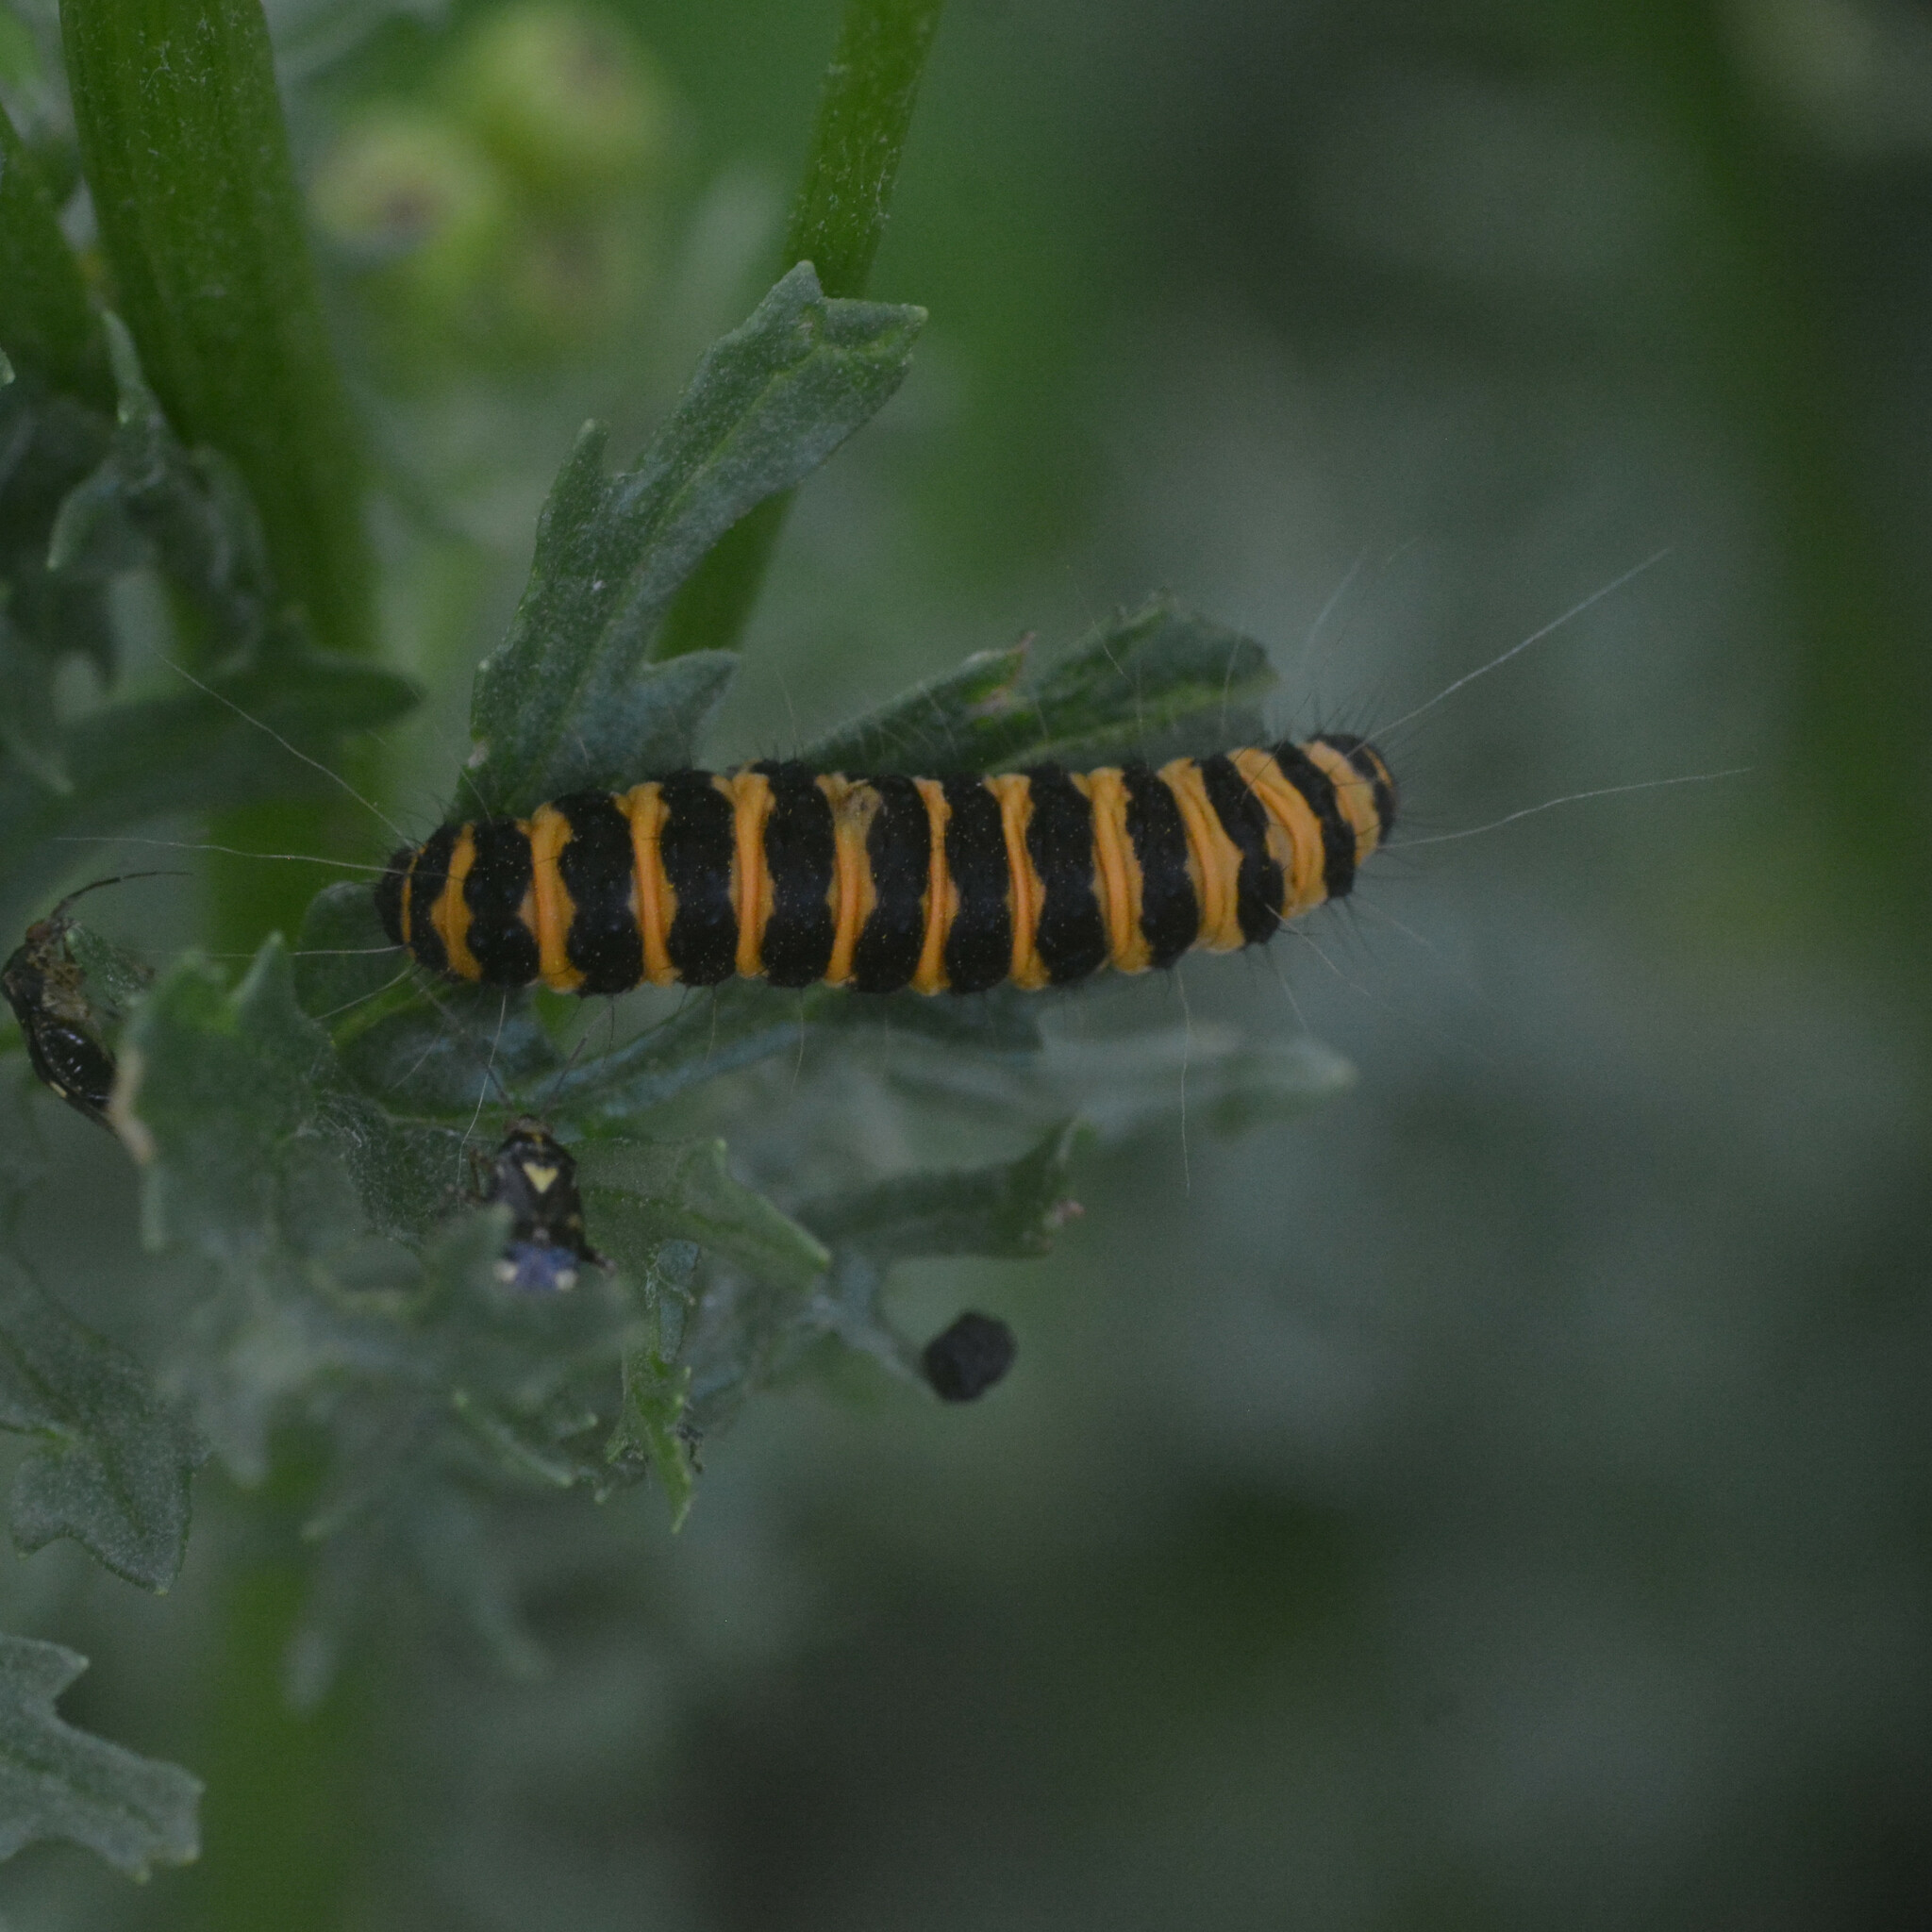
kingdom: Animalia
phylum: Arthropoda
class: Insecta
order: Lepidoptera
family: Erebidae
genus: Tyria
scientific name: Tyria jacobaeae
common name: Cinnabar
